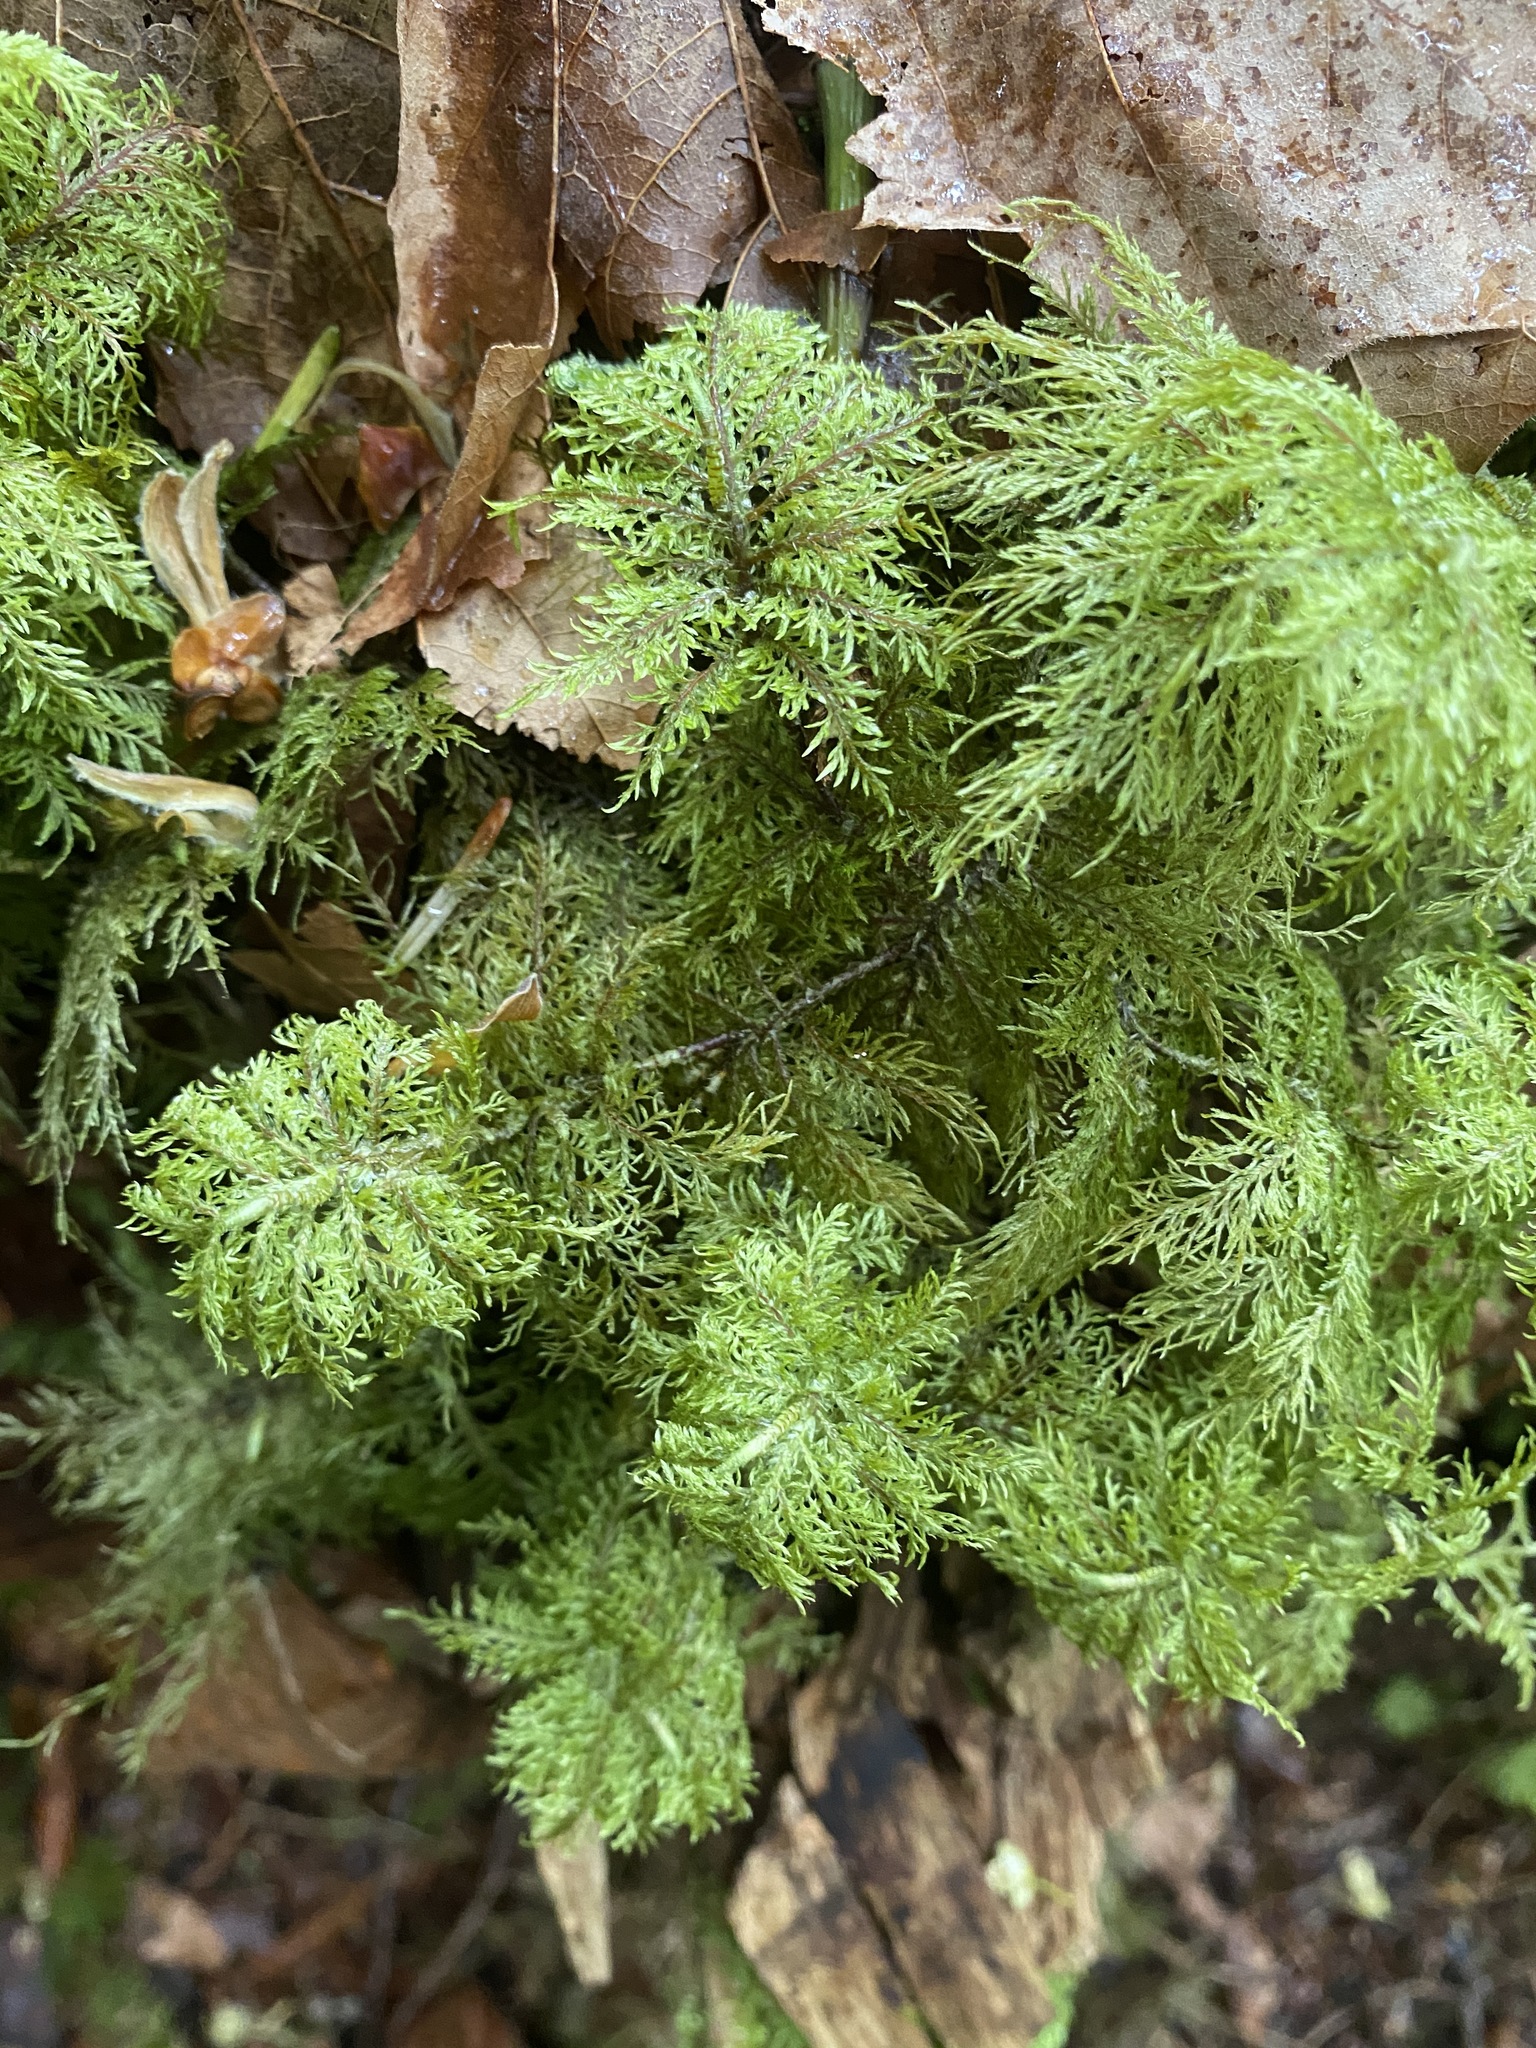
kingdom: Plantae
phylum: Bryophyta
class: Bryopsida
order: Hypnales
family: Hylocomiaceae
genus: Hylocomium
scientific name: Hylocomium splendens
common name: Stairstep moss
